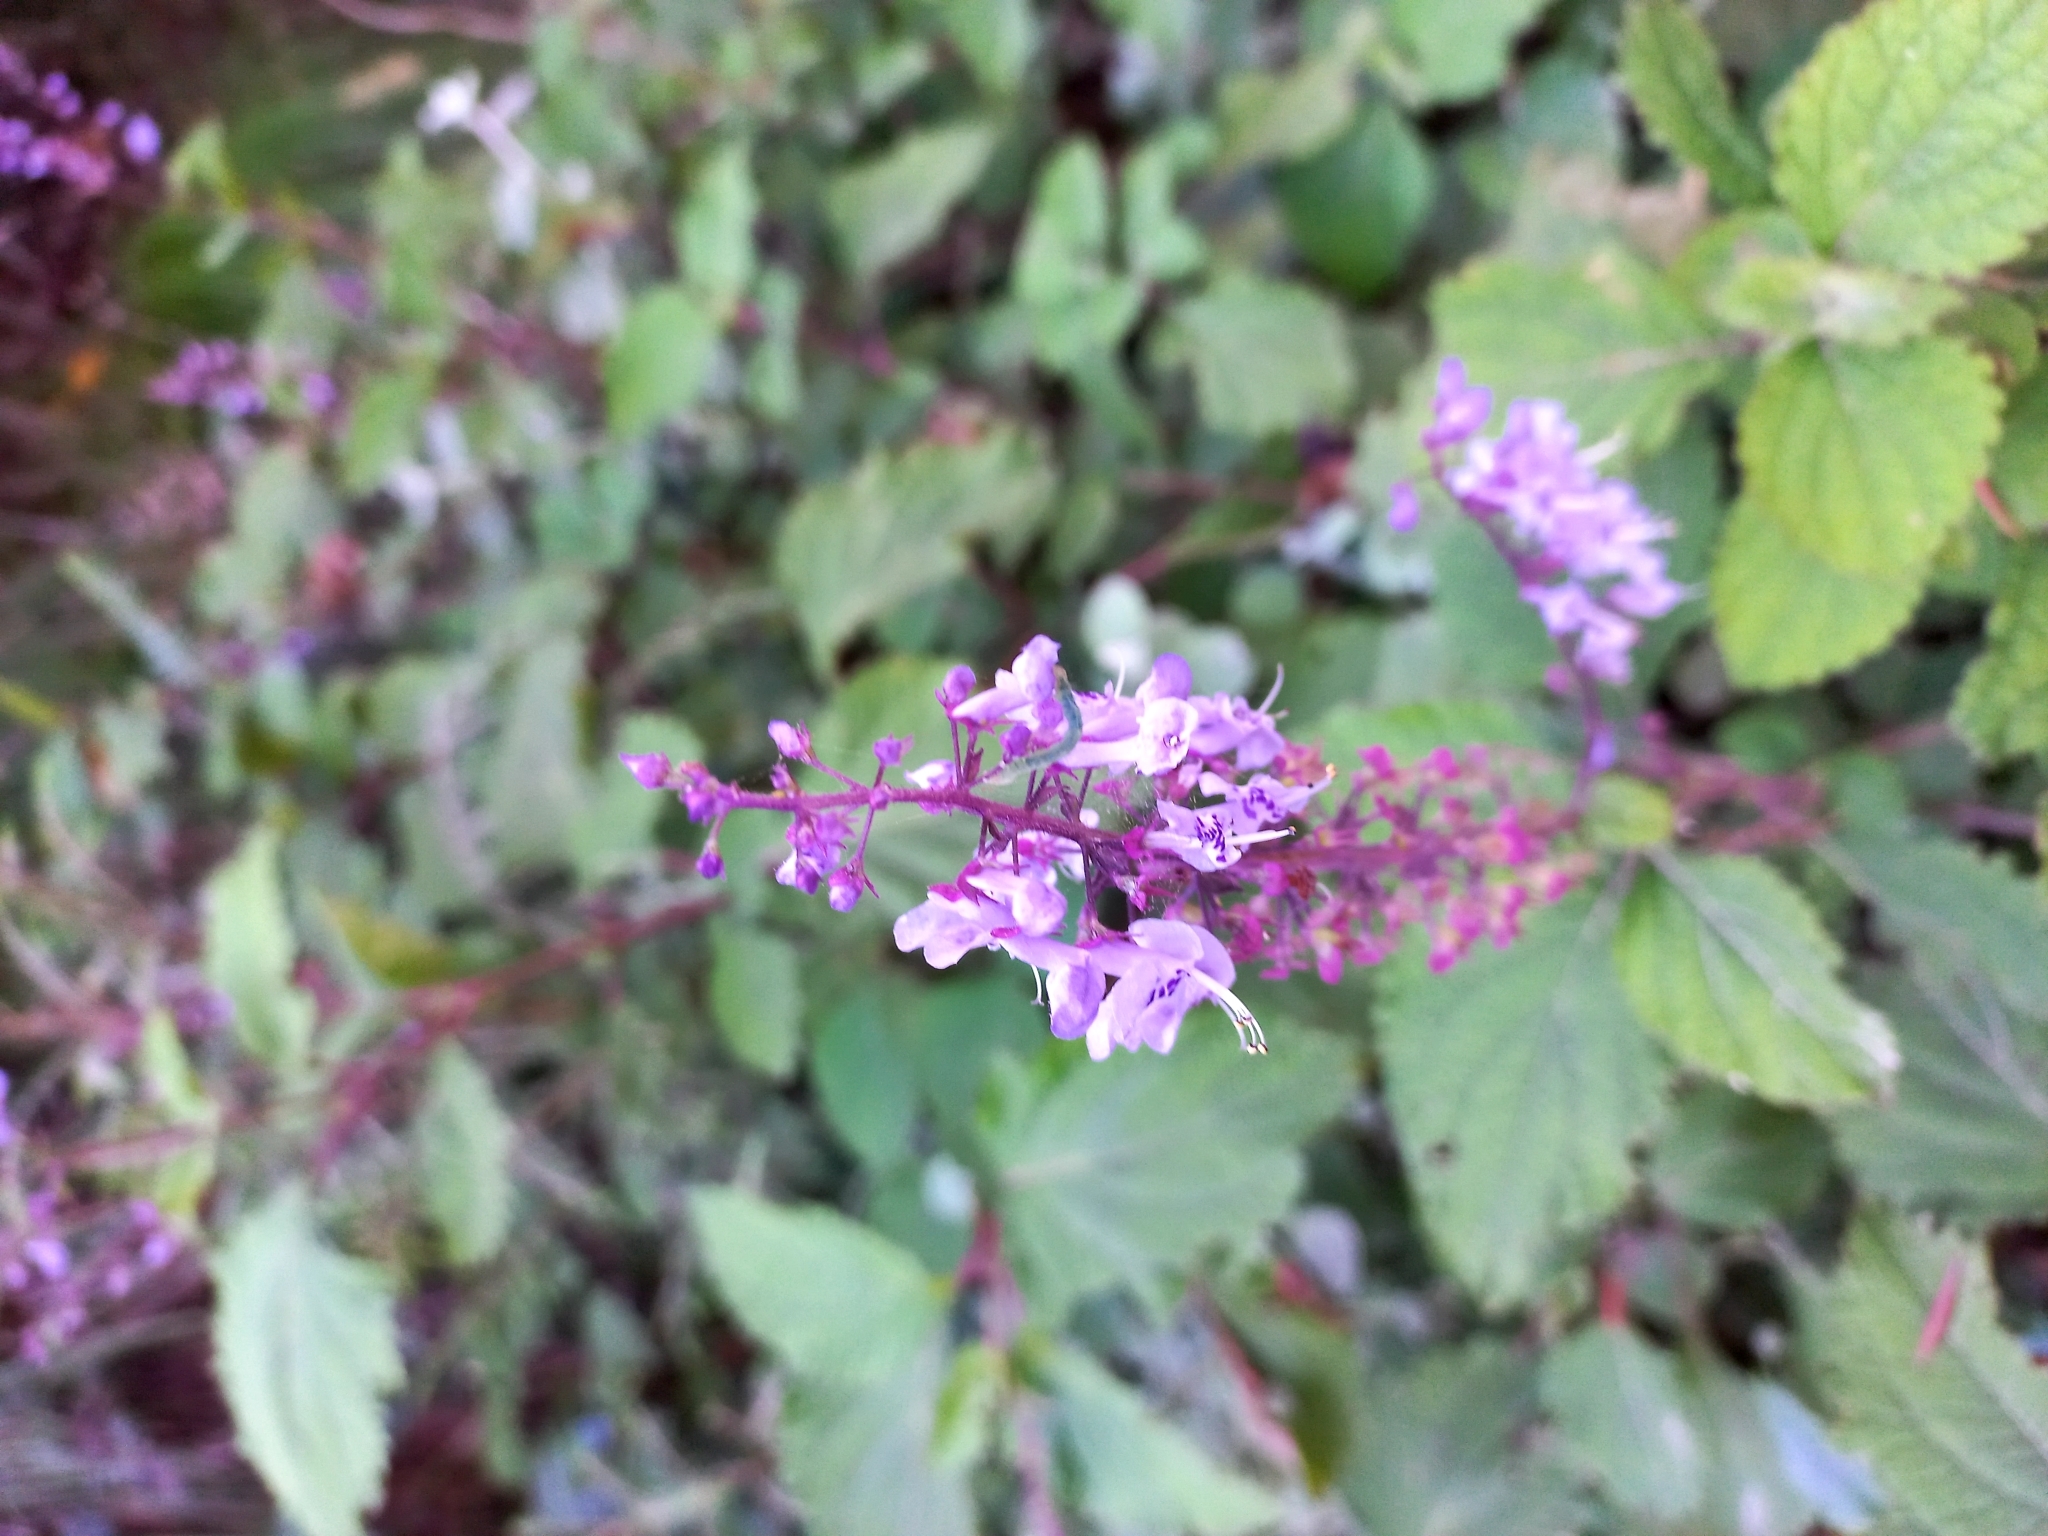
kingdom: Plantae
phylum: Tracheophyta
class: Magnoliopsida
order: Lamiales
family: Lamiaceae
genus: Plectranthus
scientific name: Plectranthus fruticosus
